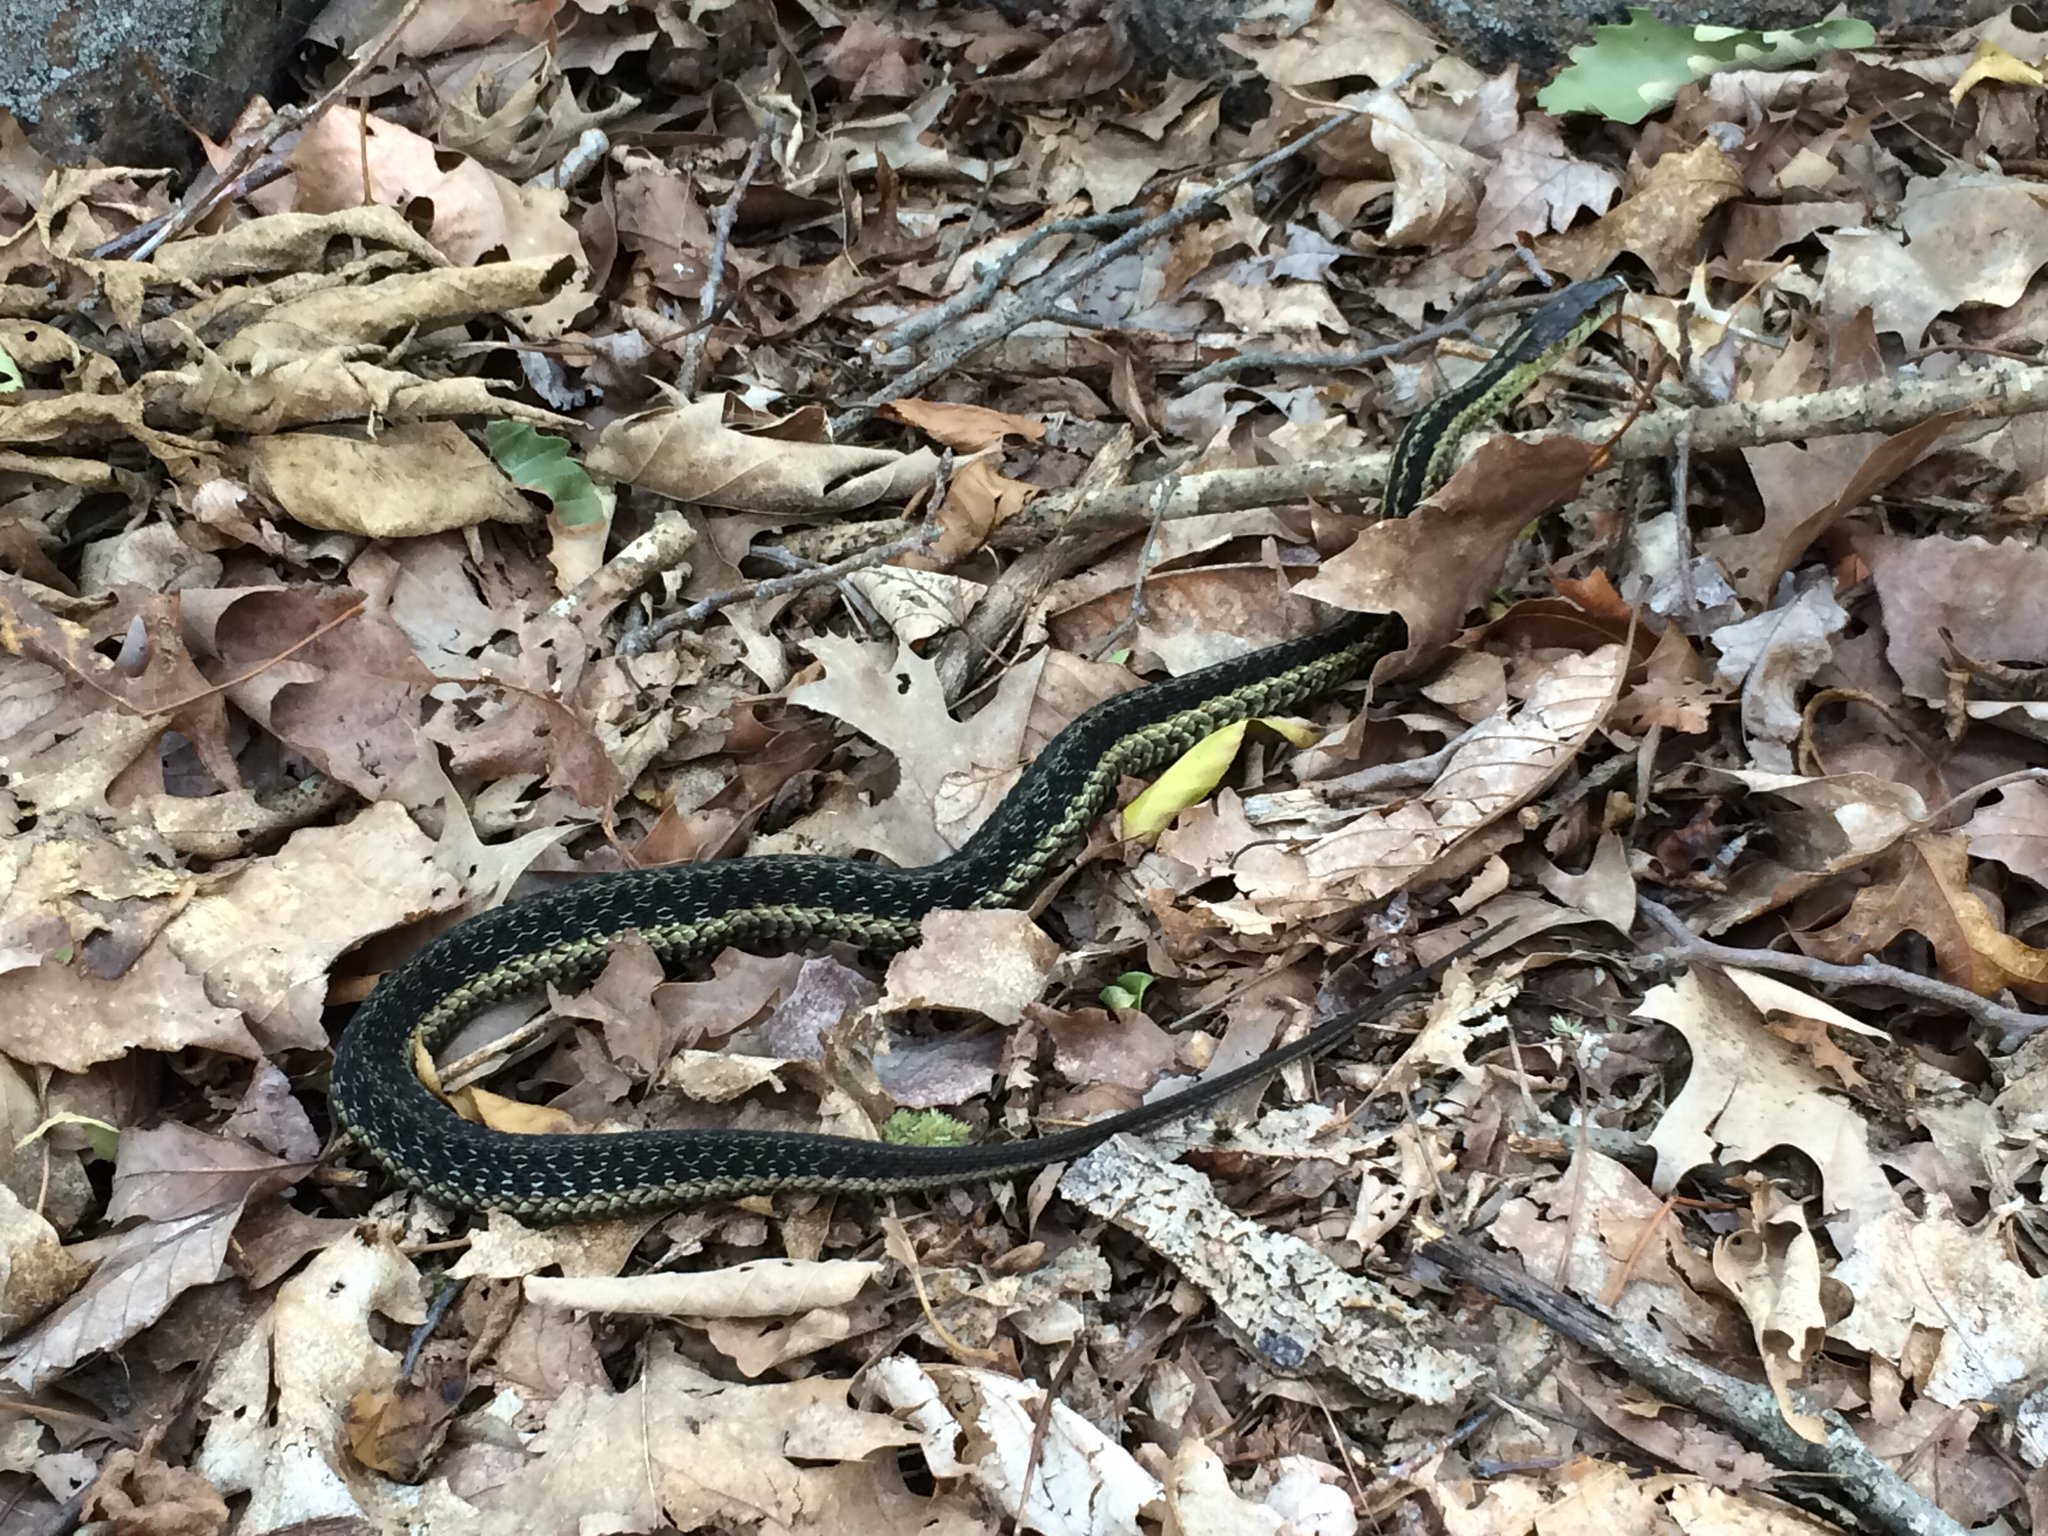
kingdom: Animalia
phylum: Chordata
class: Squamata
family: Colubridae
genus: Thamnophis
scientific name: Thamnophis sirtalis
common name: Common garter snake
